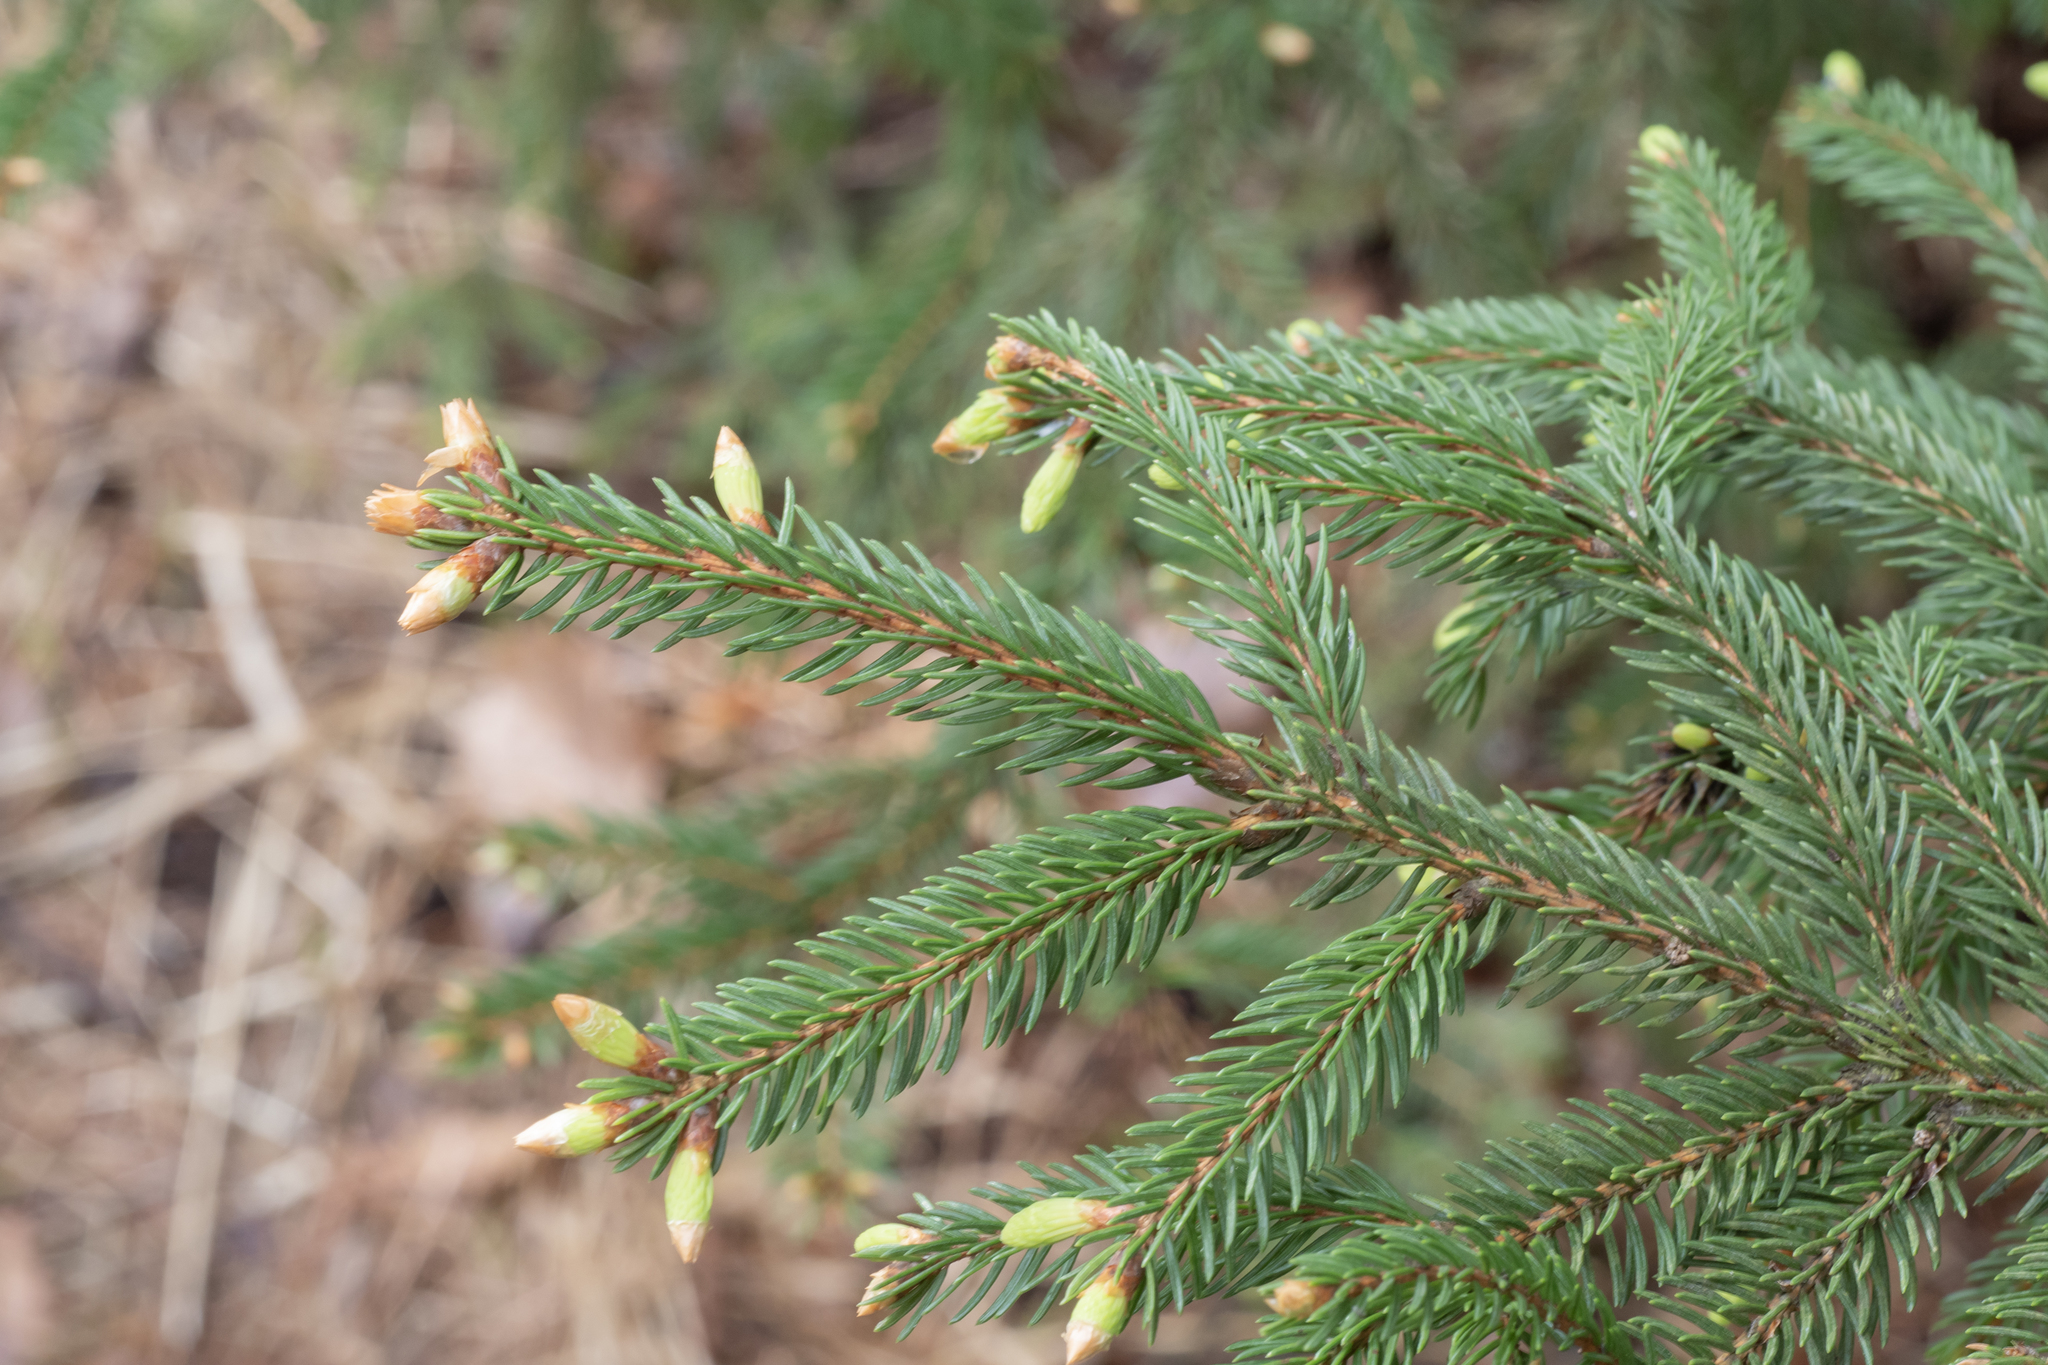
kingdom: Plantae
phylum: Tracheophyta
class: Pinopsida
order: Pinales
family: Pinaceae
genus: Picea
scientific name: Picea abies
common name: Norway spruce
